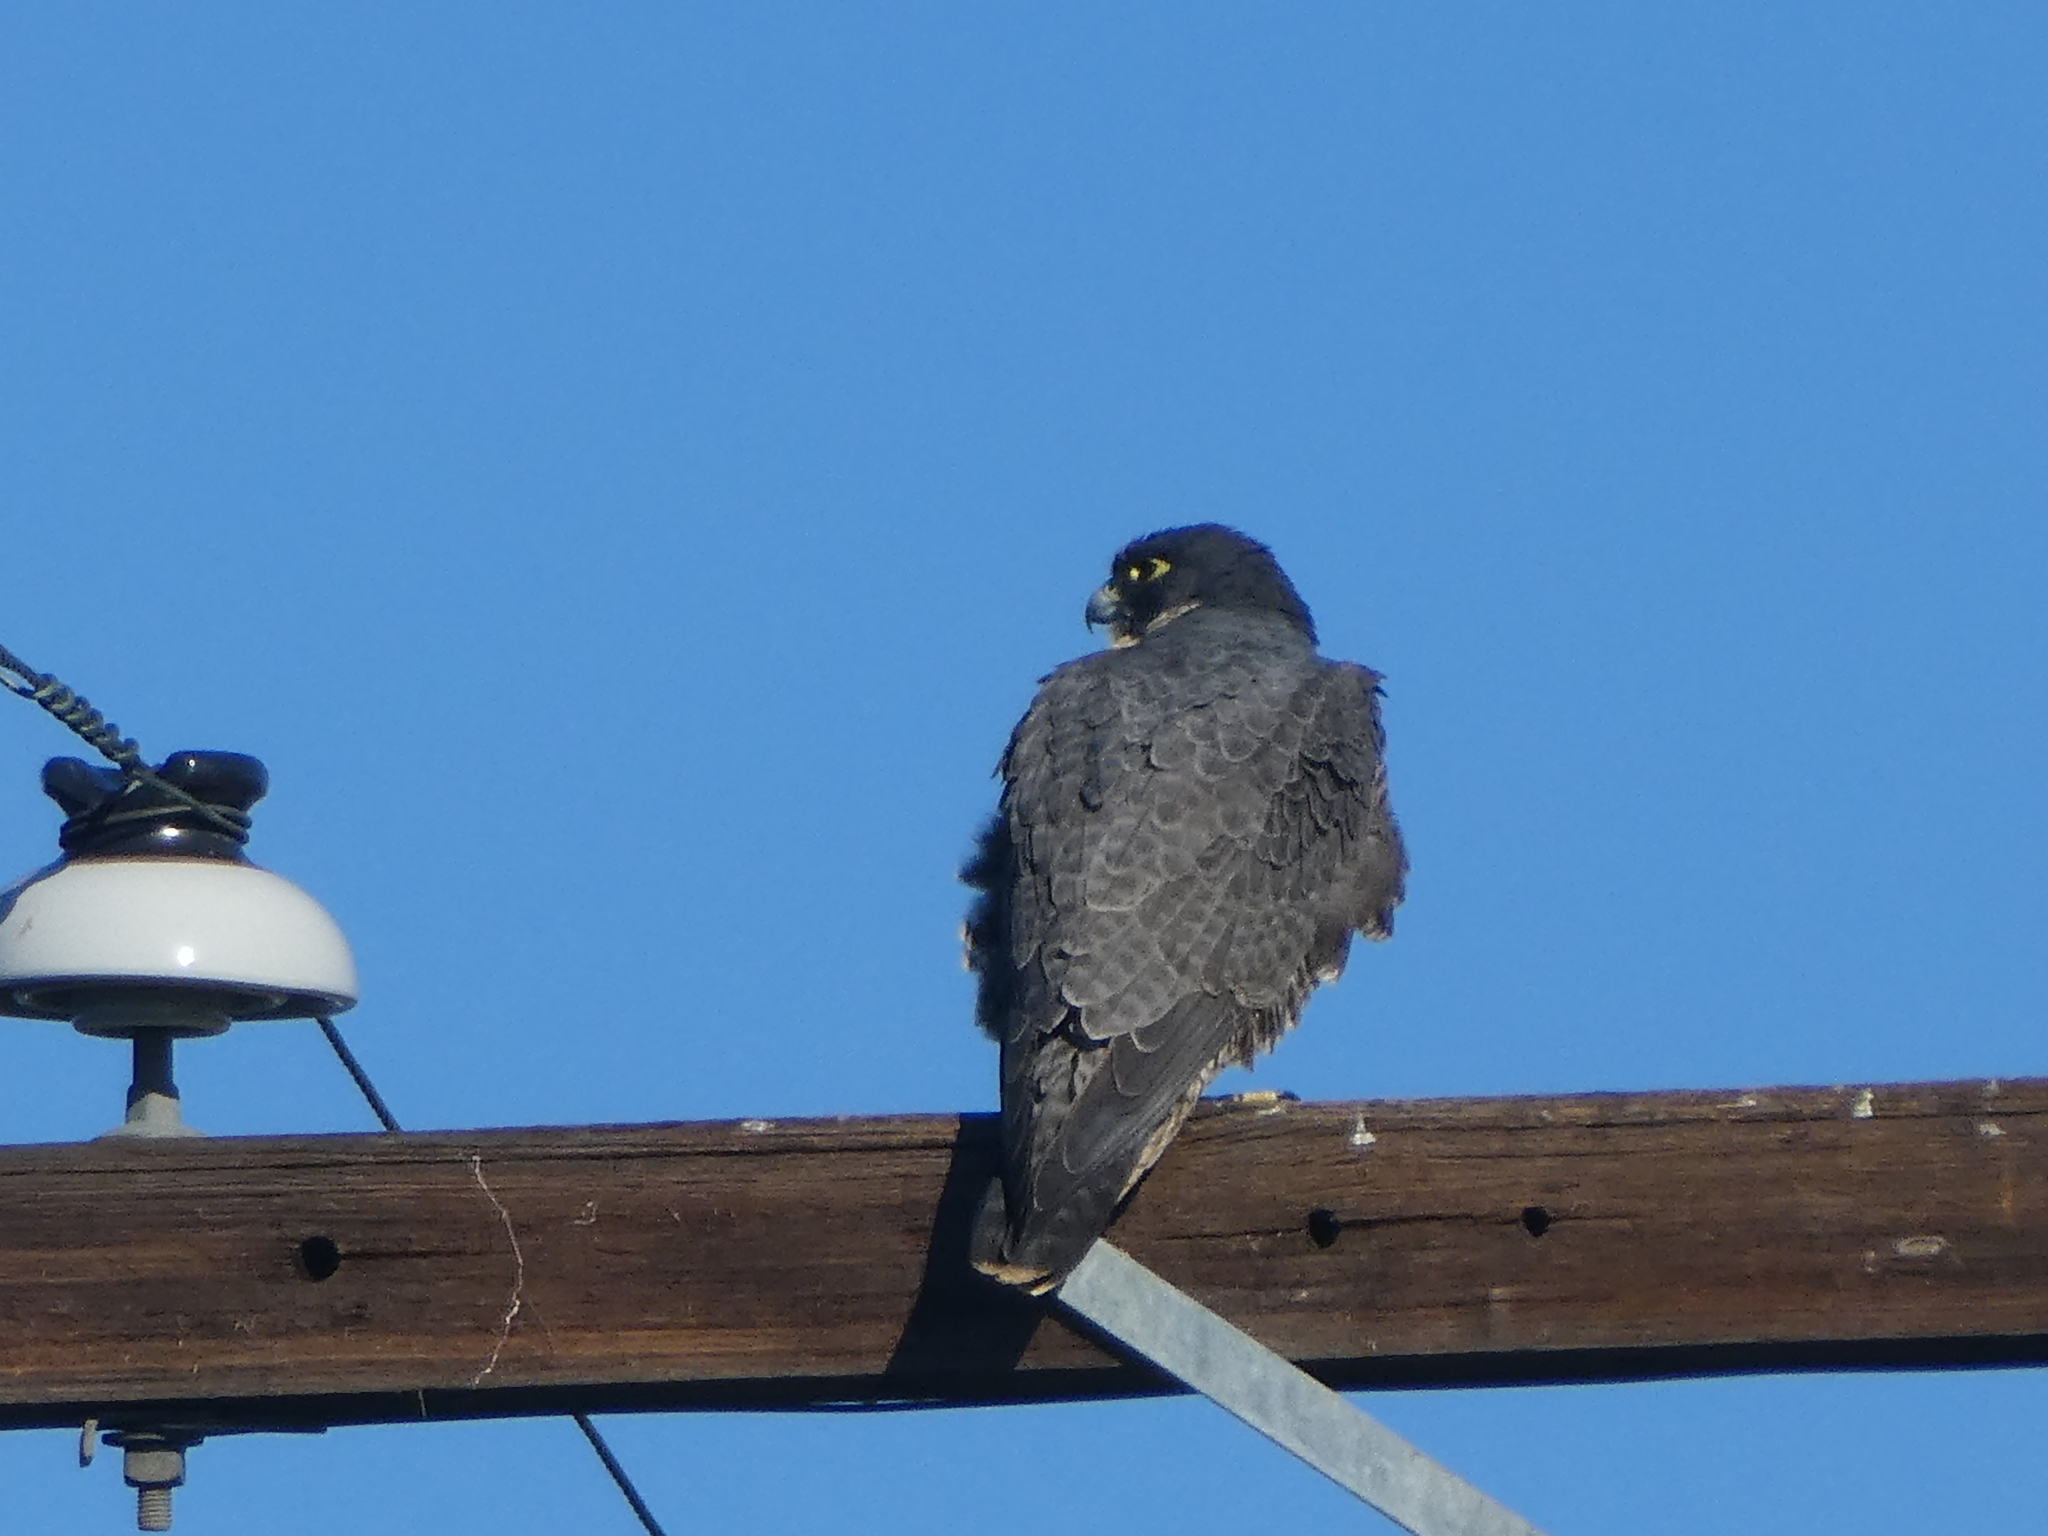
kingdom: Animalia
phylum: Chordata
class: Aves
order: Falconiformes
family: Falconidae
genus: Falco
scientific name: Falco peregrinus
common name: Peregrine falcon
